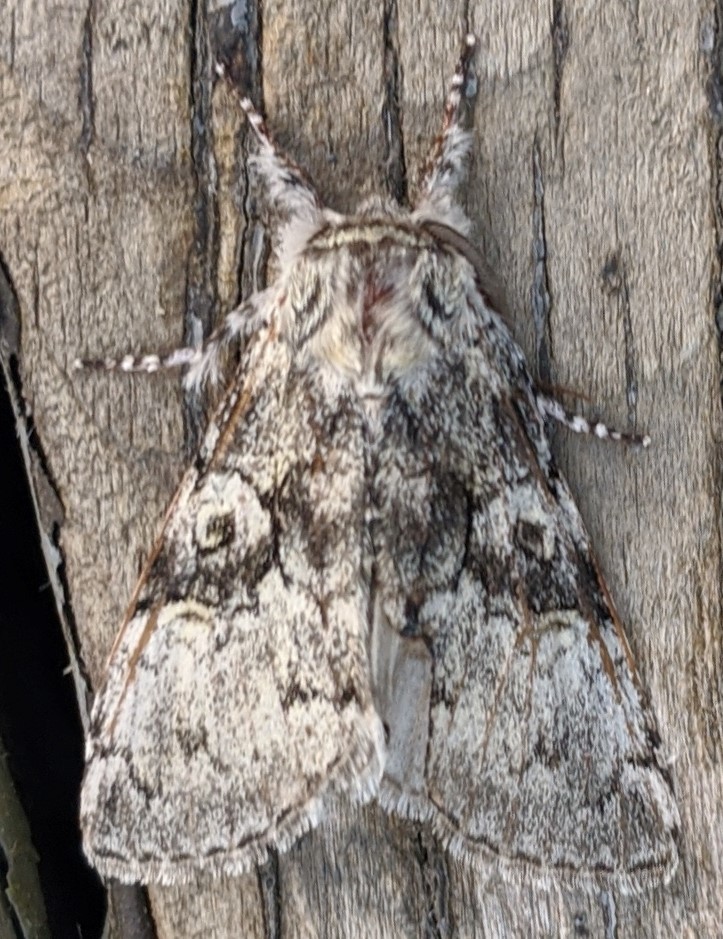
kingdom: Animalia
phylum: Arthropoda
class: Insecta
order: Lepidoptera
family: Noctuidae
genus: Charadra
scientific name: Charadra deridens
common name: Marbled tuffet
